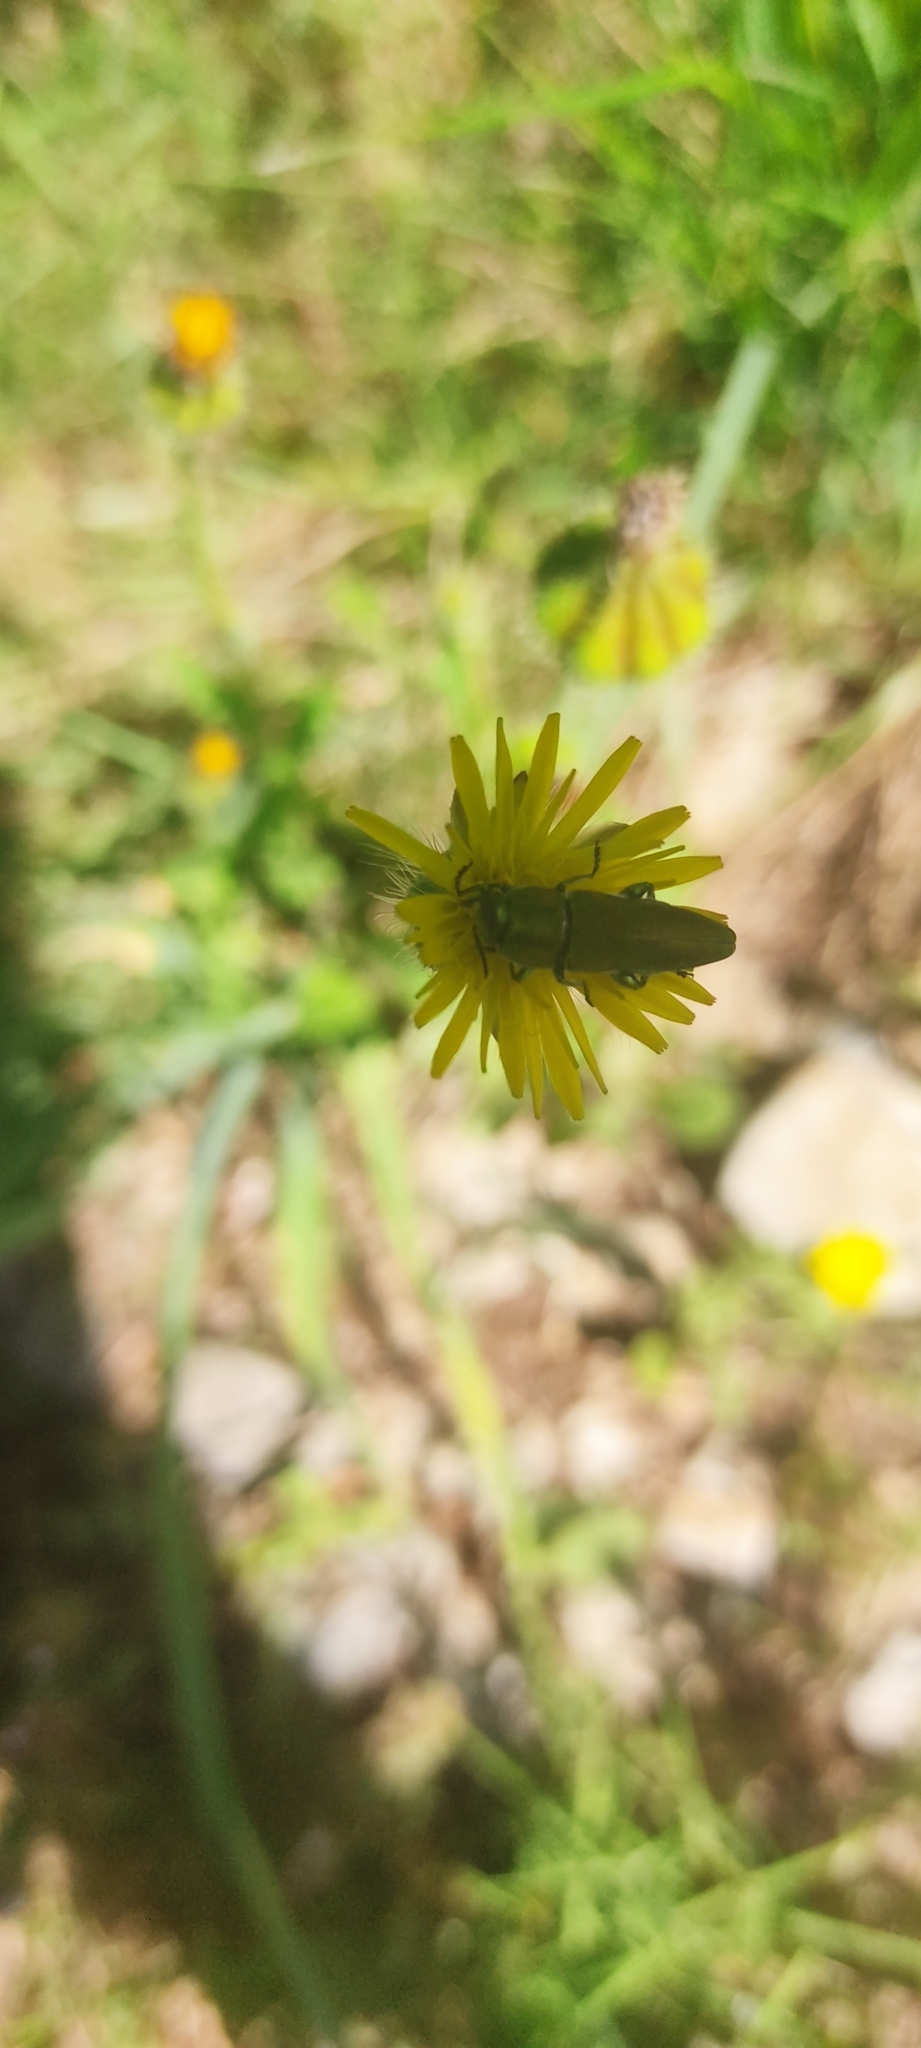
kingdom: Animalia
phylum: Arthropoda
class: Insecta
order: Coleoptera
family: Buprestidae
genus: Anthaxia
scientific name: Anthaxia hungarica
